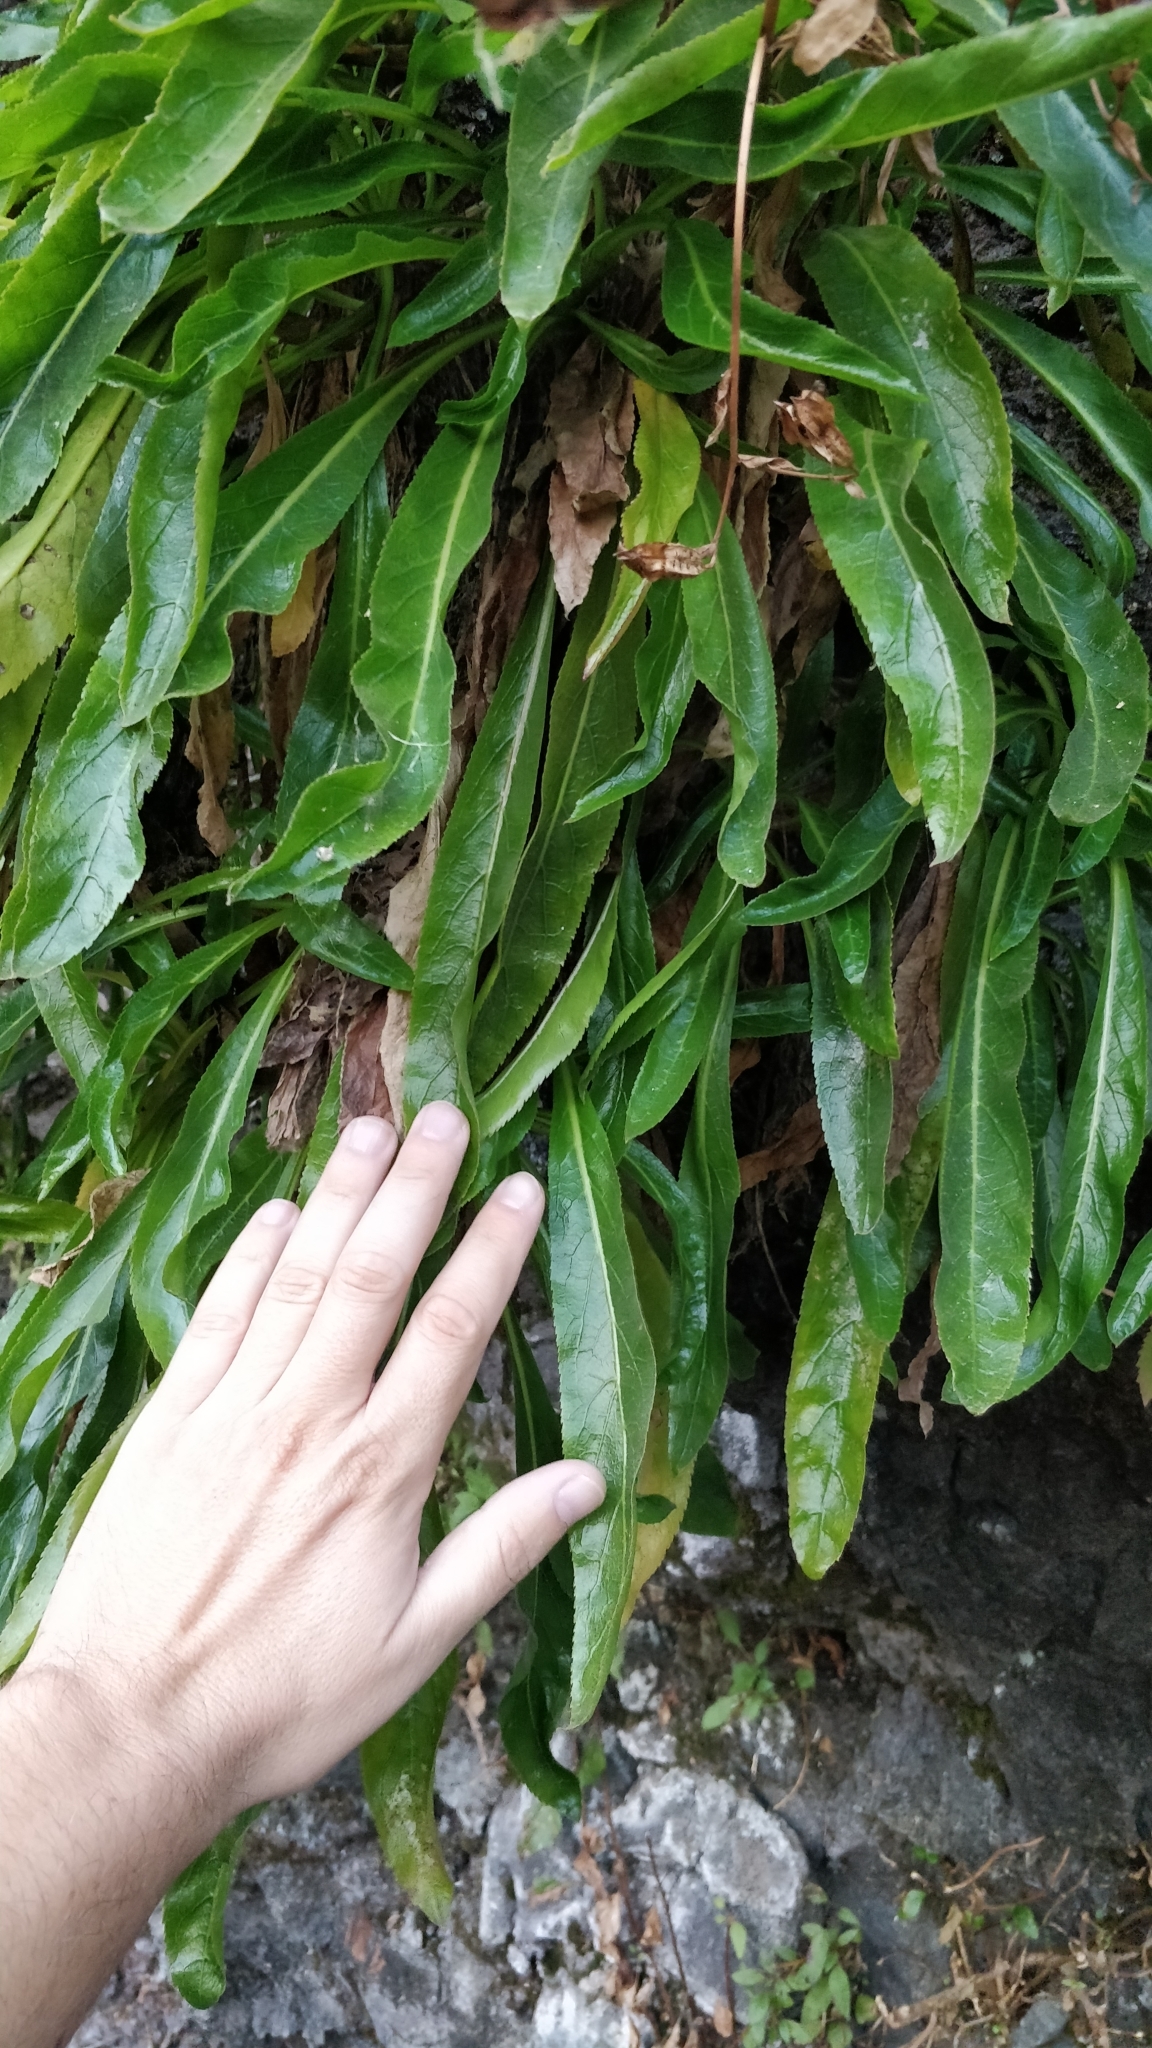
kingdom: Plantae
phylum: Tracheophyta
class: Magnoliopsida
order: Asterales
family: Campanulaceae
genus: Musschia
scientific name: Musschia aurea
